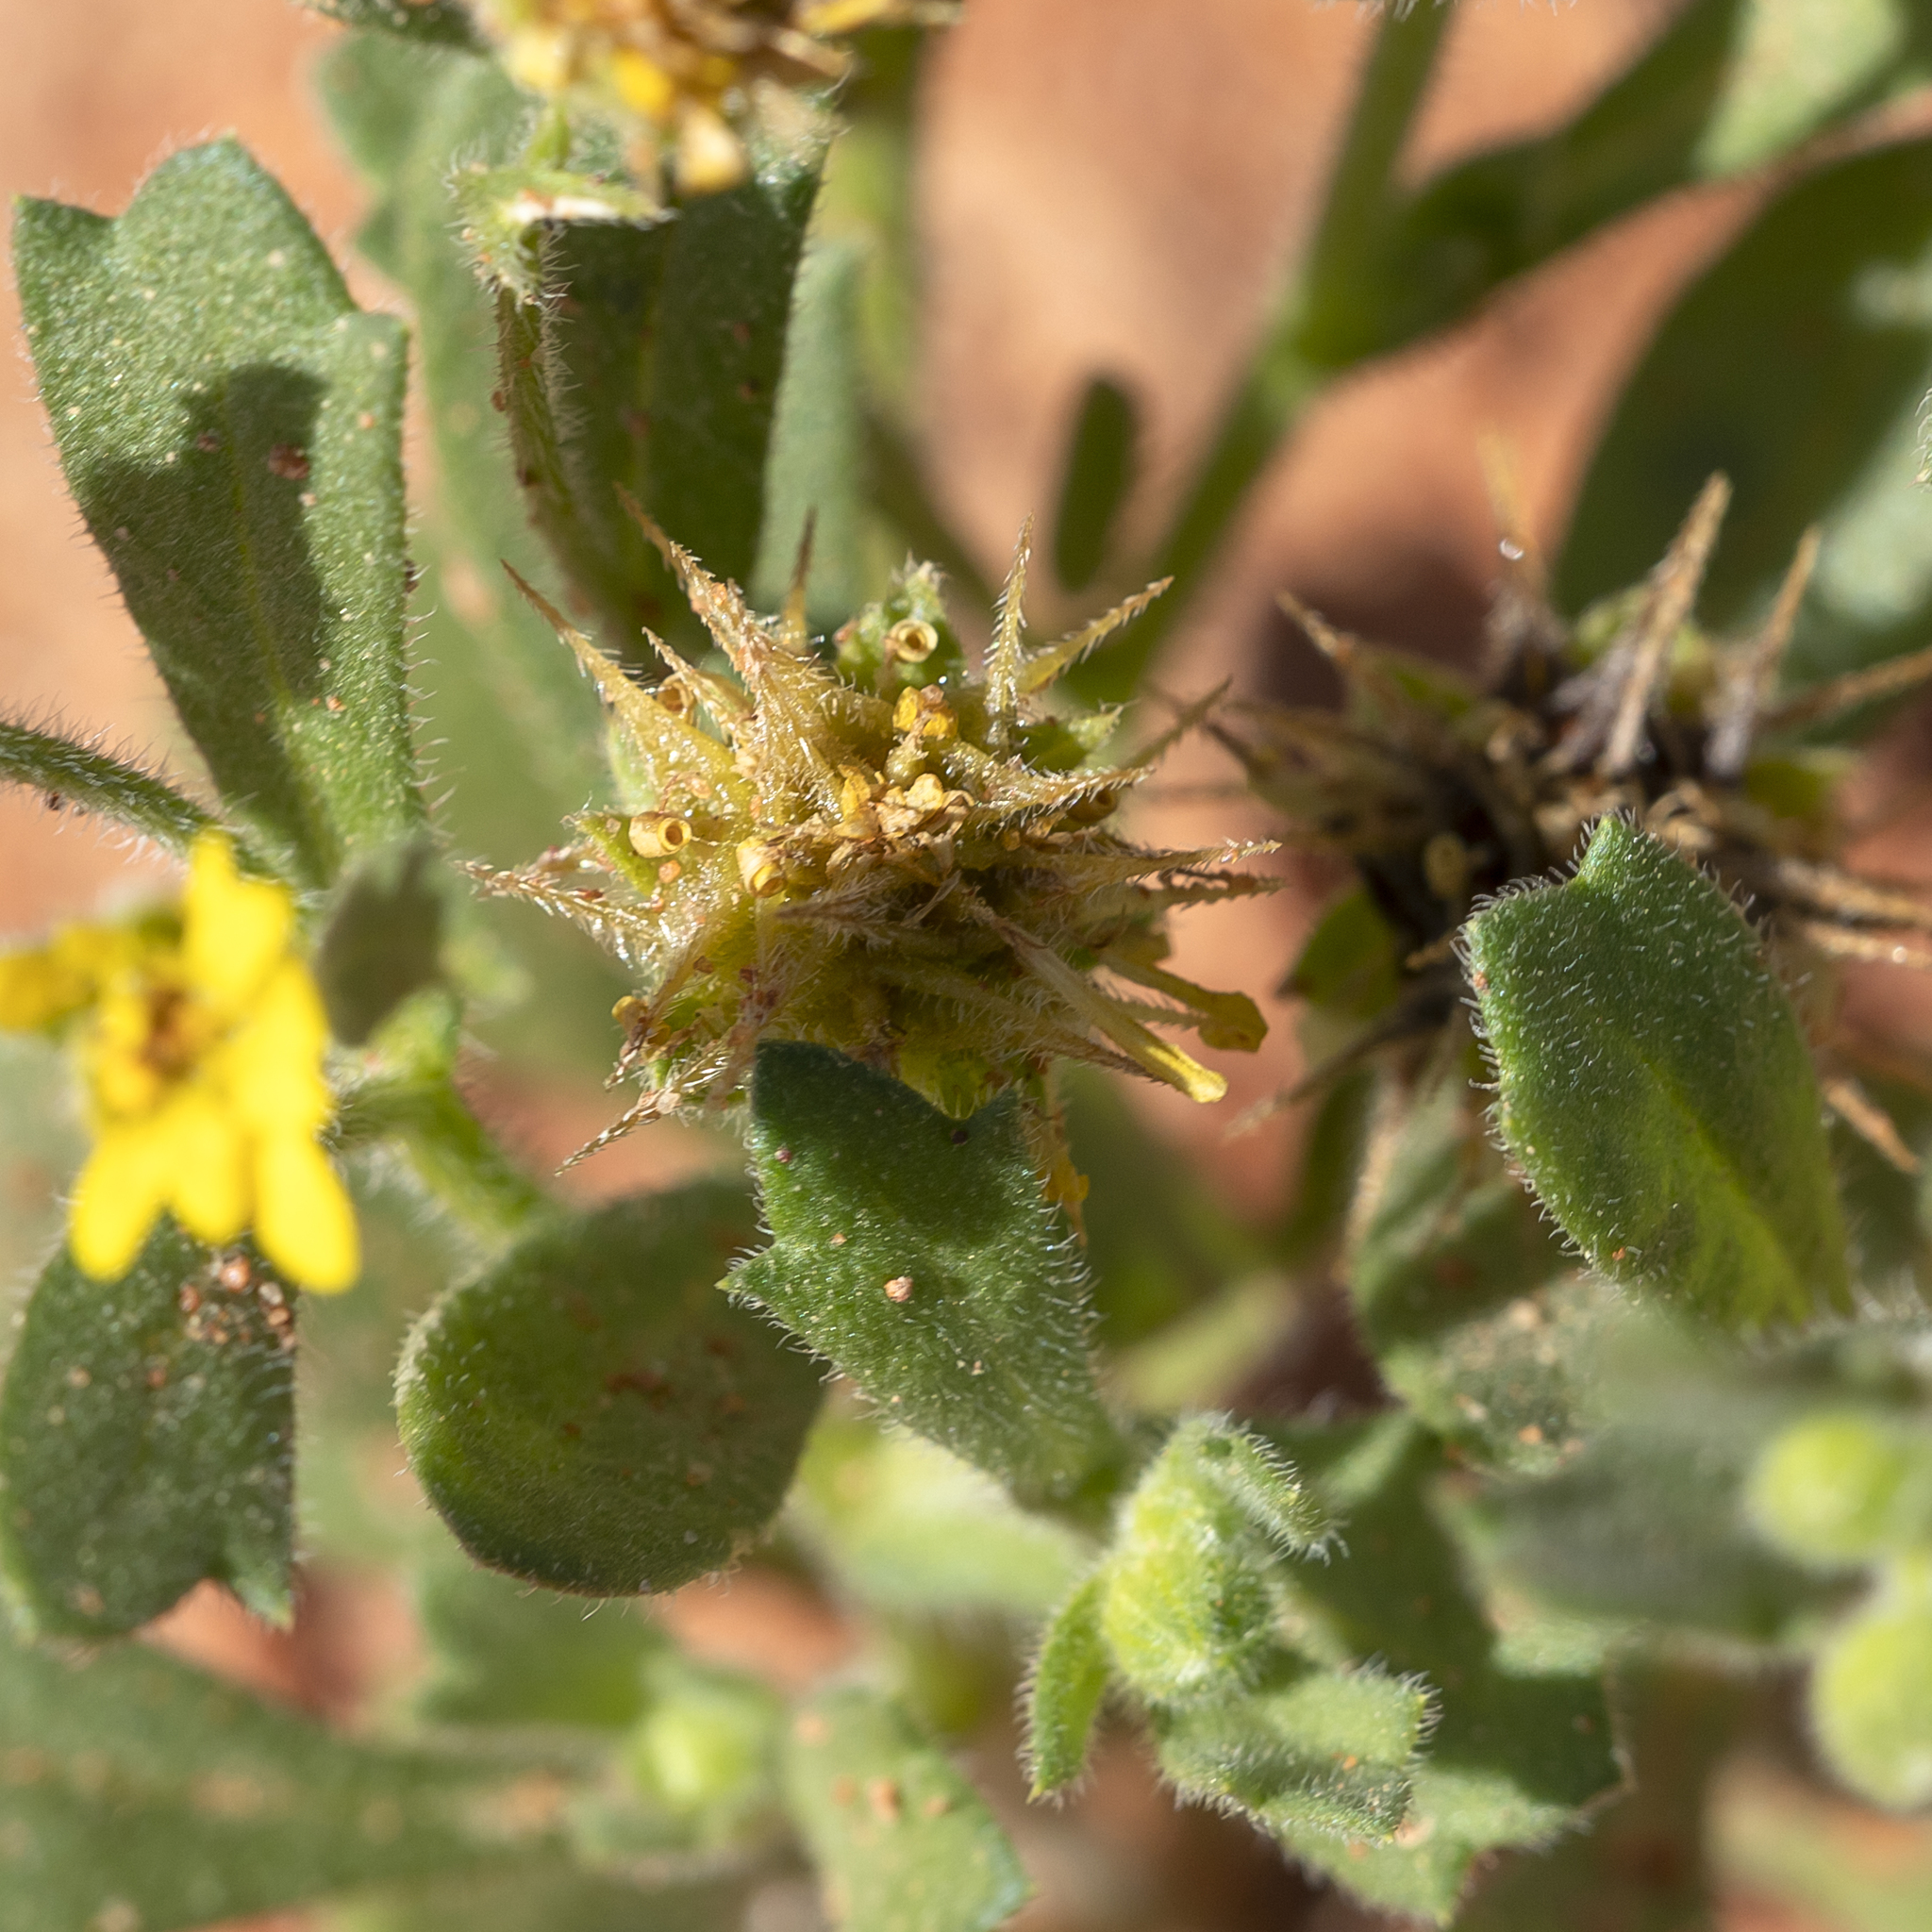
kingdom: Plantae
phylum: Tracheophyta
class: Magnoliopsida
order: Asterales
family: Asteraceae
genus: Calotis
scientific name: Calotis cymbacantha
